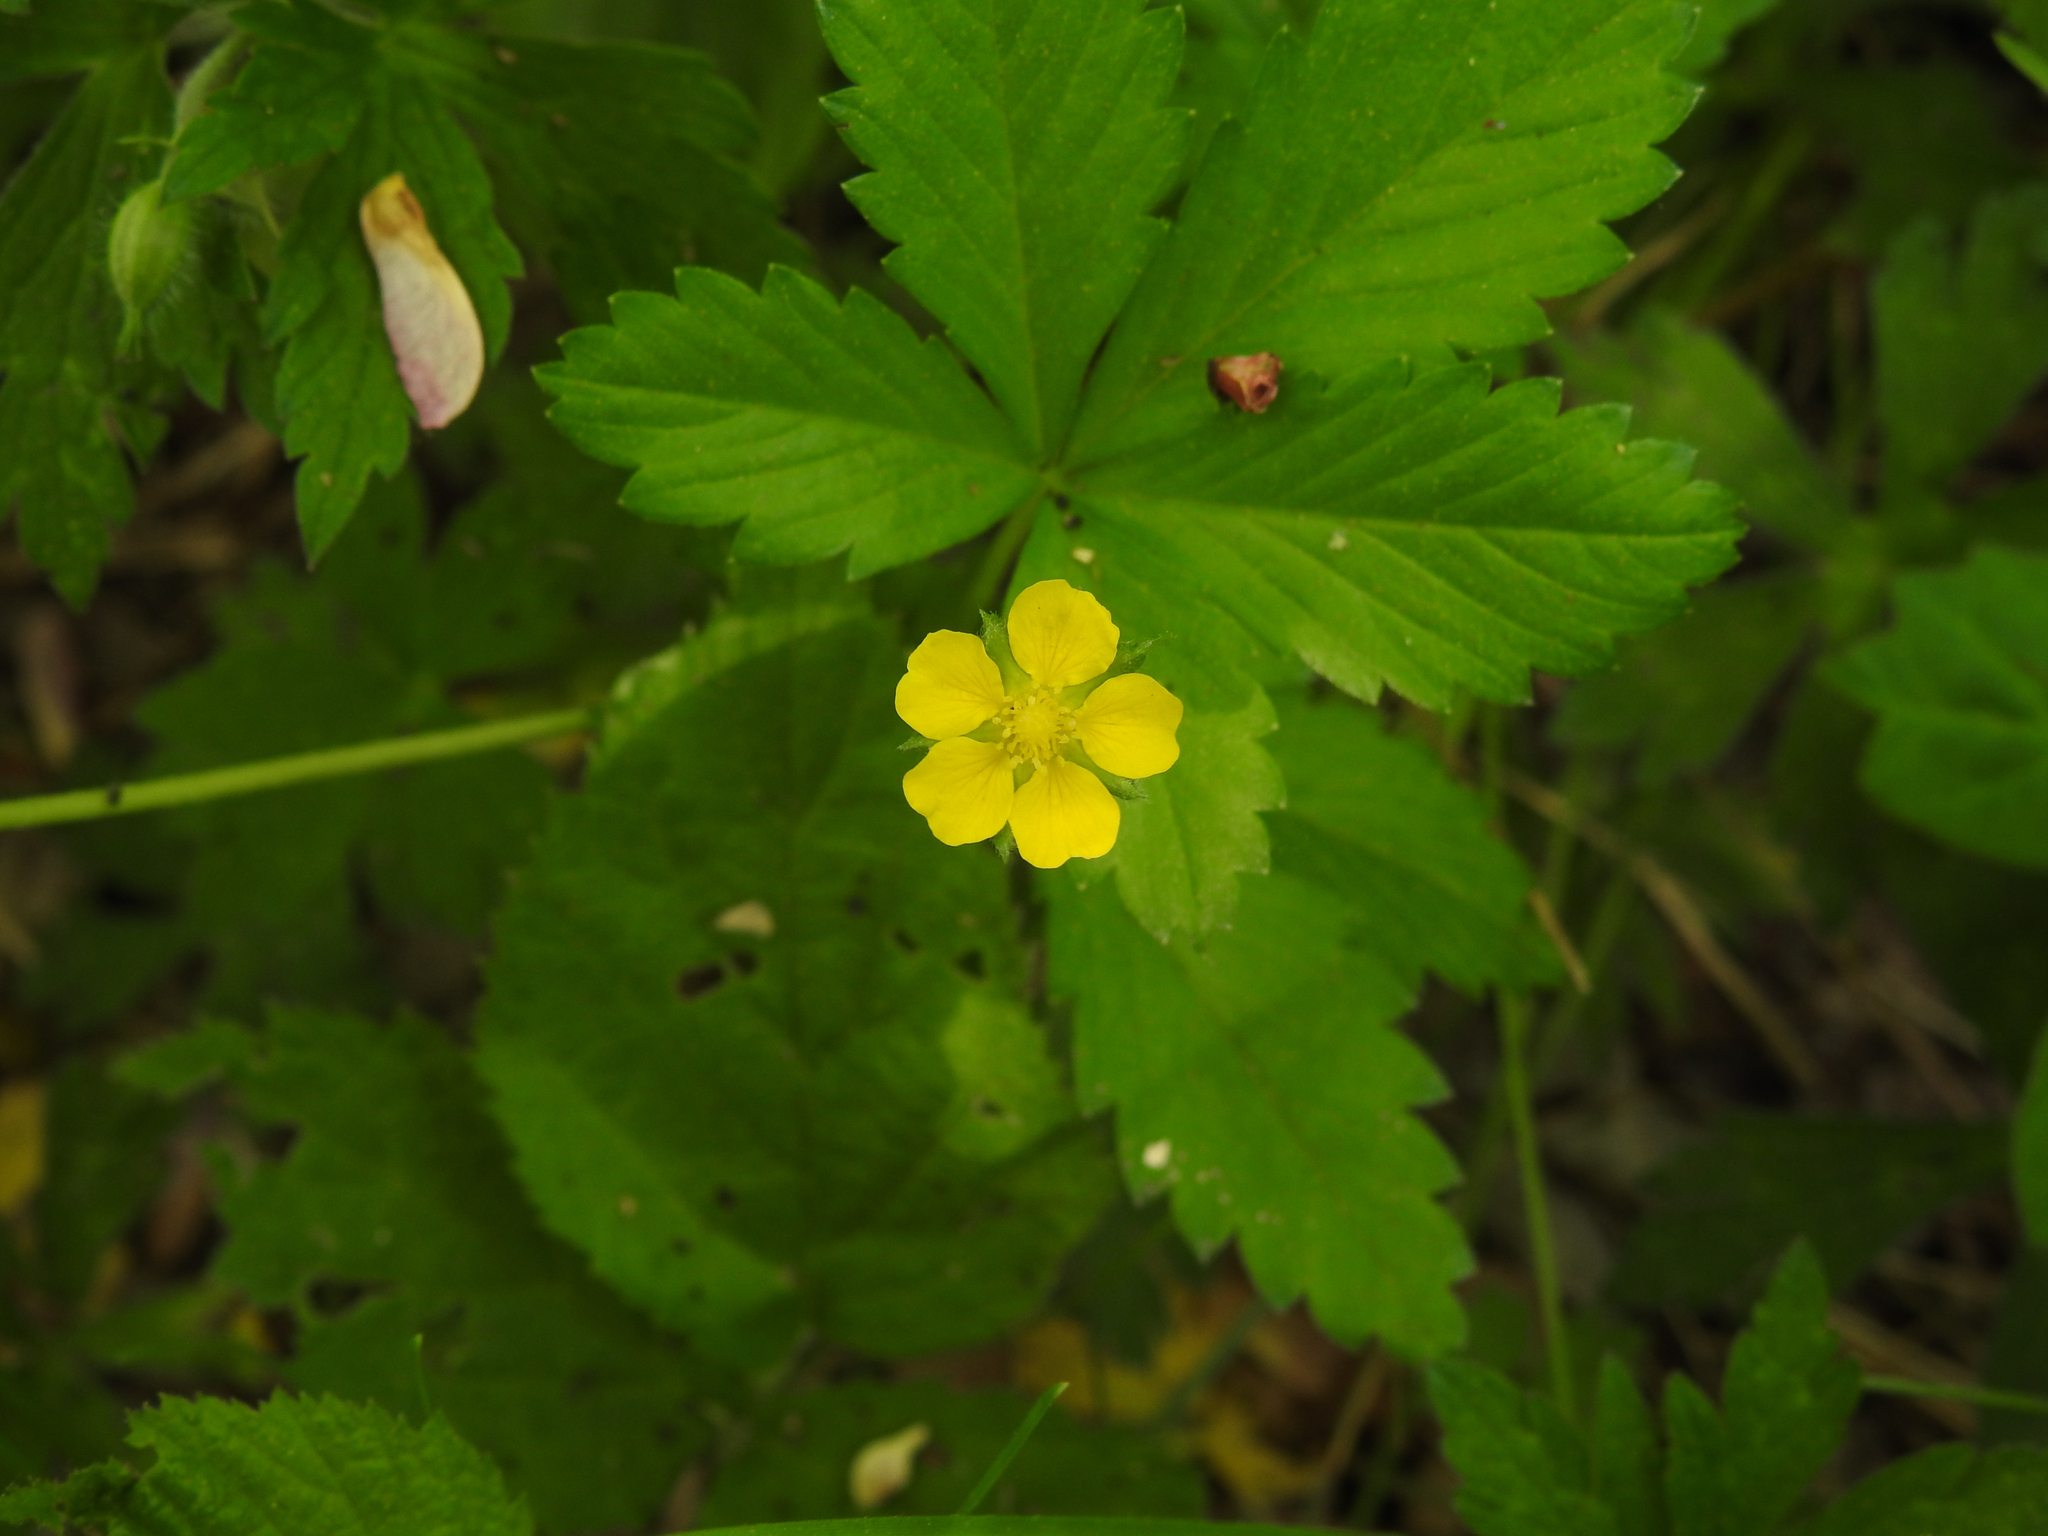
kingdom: Plantae
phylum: Tracheophyta
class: Magnoliopsida
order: Rosales
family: Rosaceae
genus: Potentilla
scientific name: Potentilla simplex
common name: Old field cinquefoil
